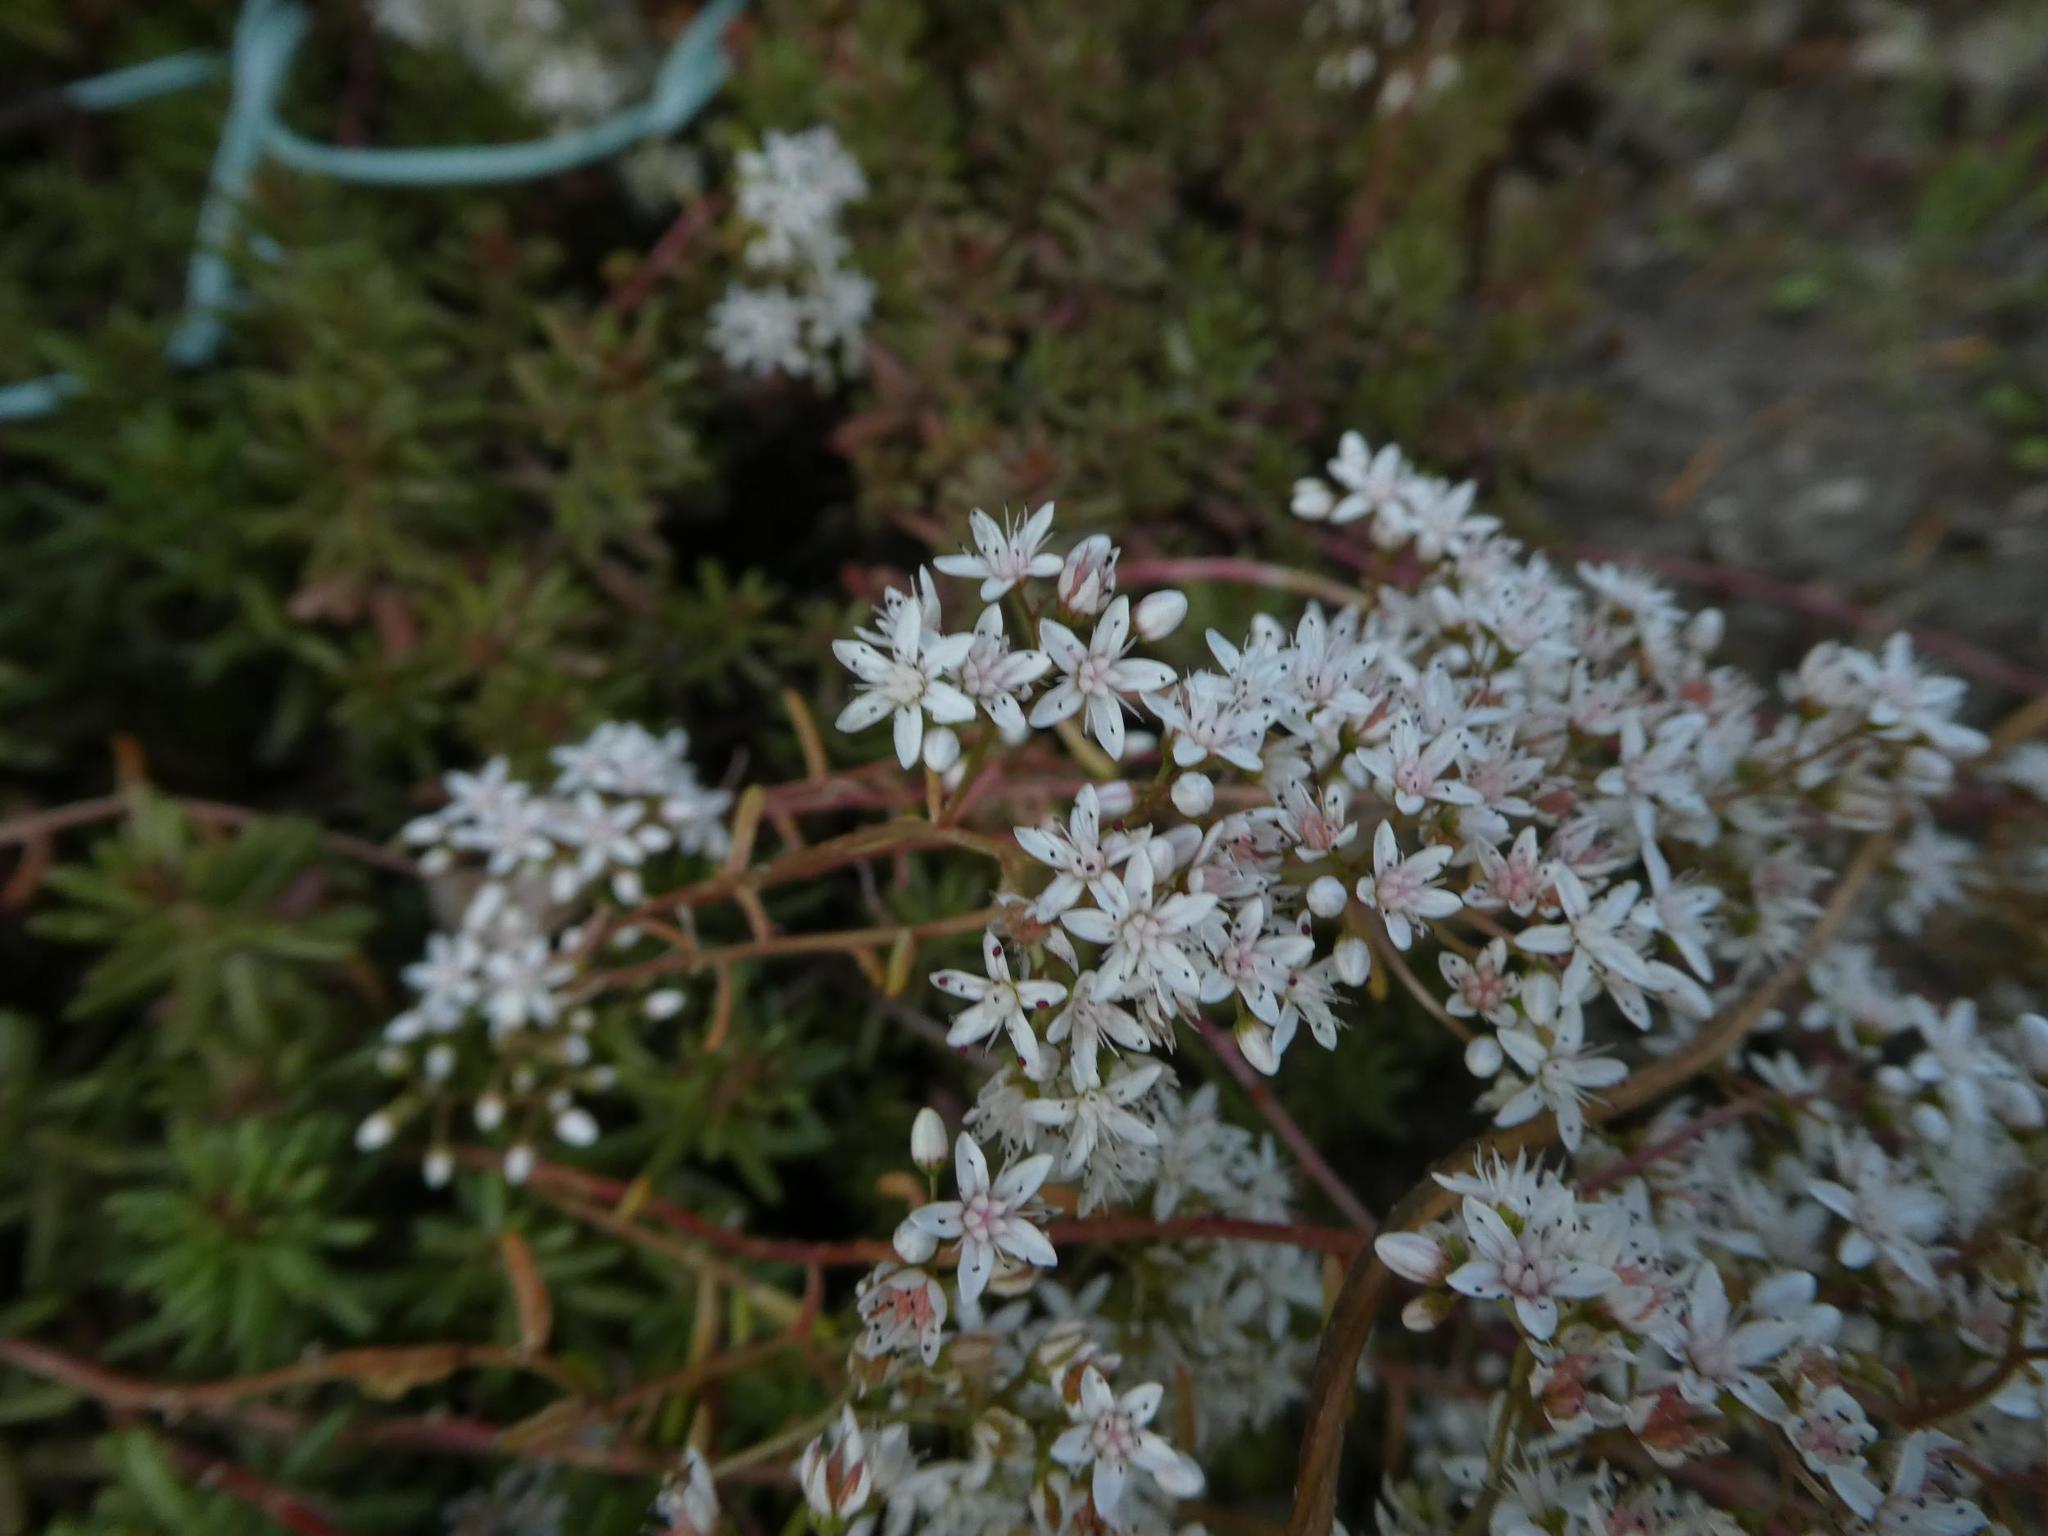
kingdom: Plantae
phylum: Tracheophyta
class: Magnoliopsida
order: Saxifragales
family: Crassulaceae
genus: Sedum
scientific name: Sedum album
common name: White stonecrop
